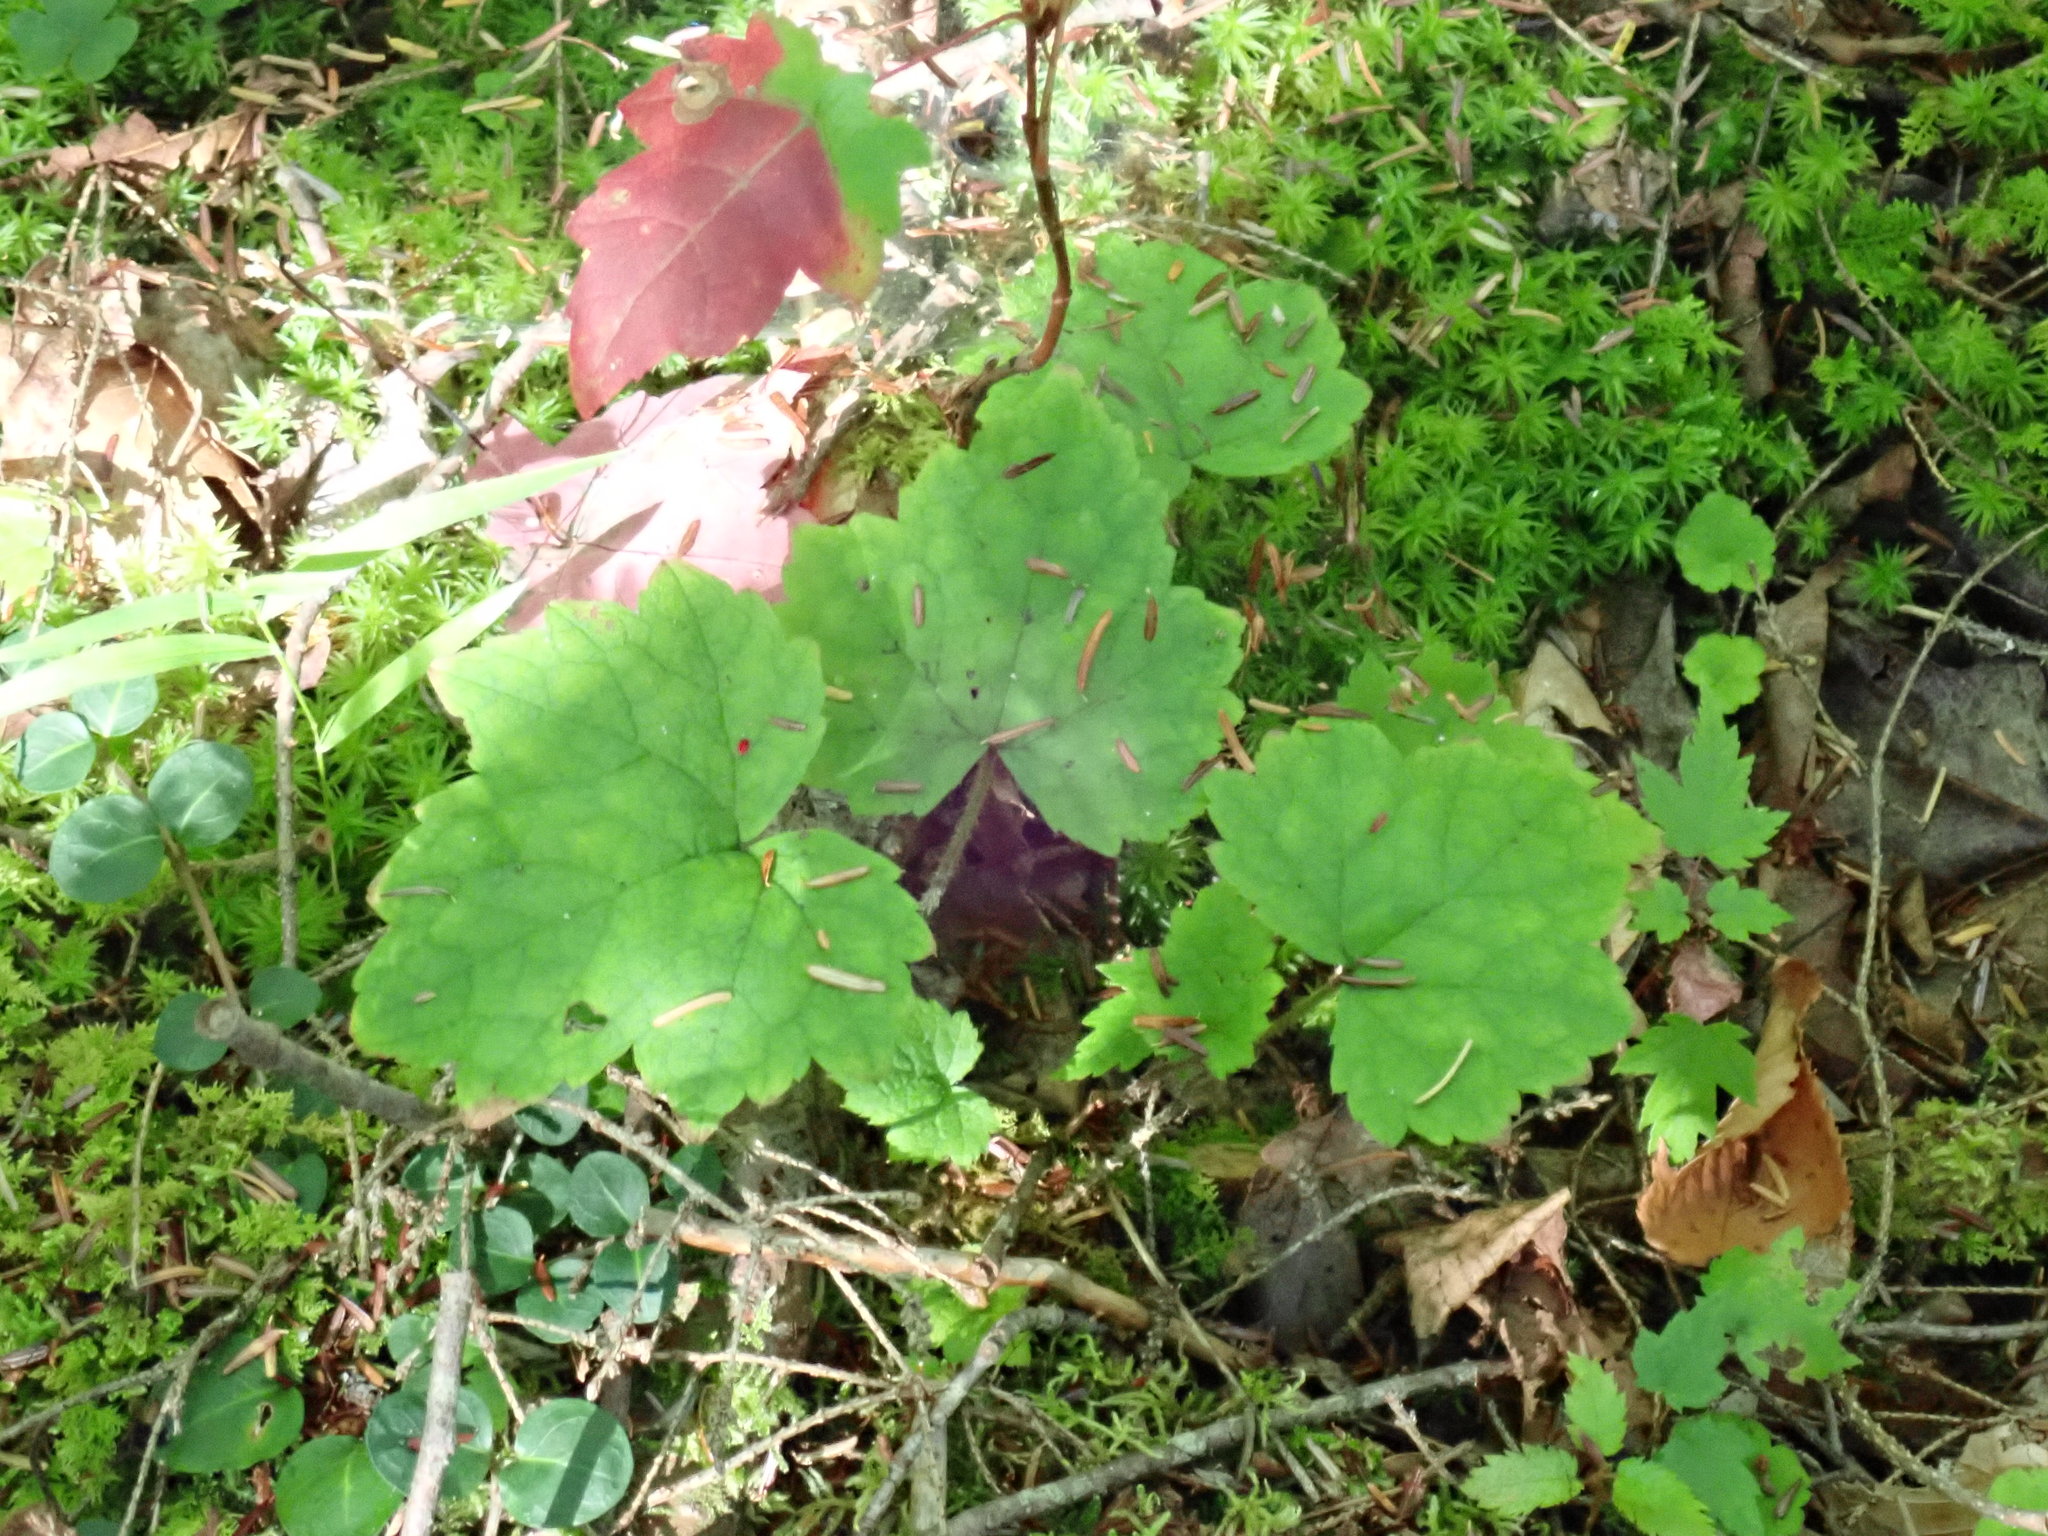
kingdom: Plantae
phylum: Tracheophyta
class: Magnoliopsida
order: Saxifragales
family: Saxifragaceae
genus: Tiarella
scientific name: Tiarella stolonifera
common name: Stoloniferous foamflower
